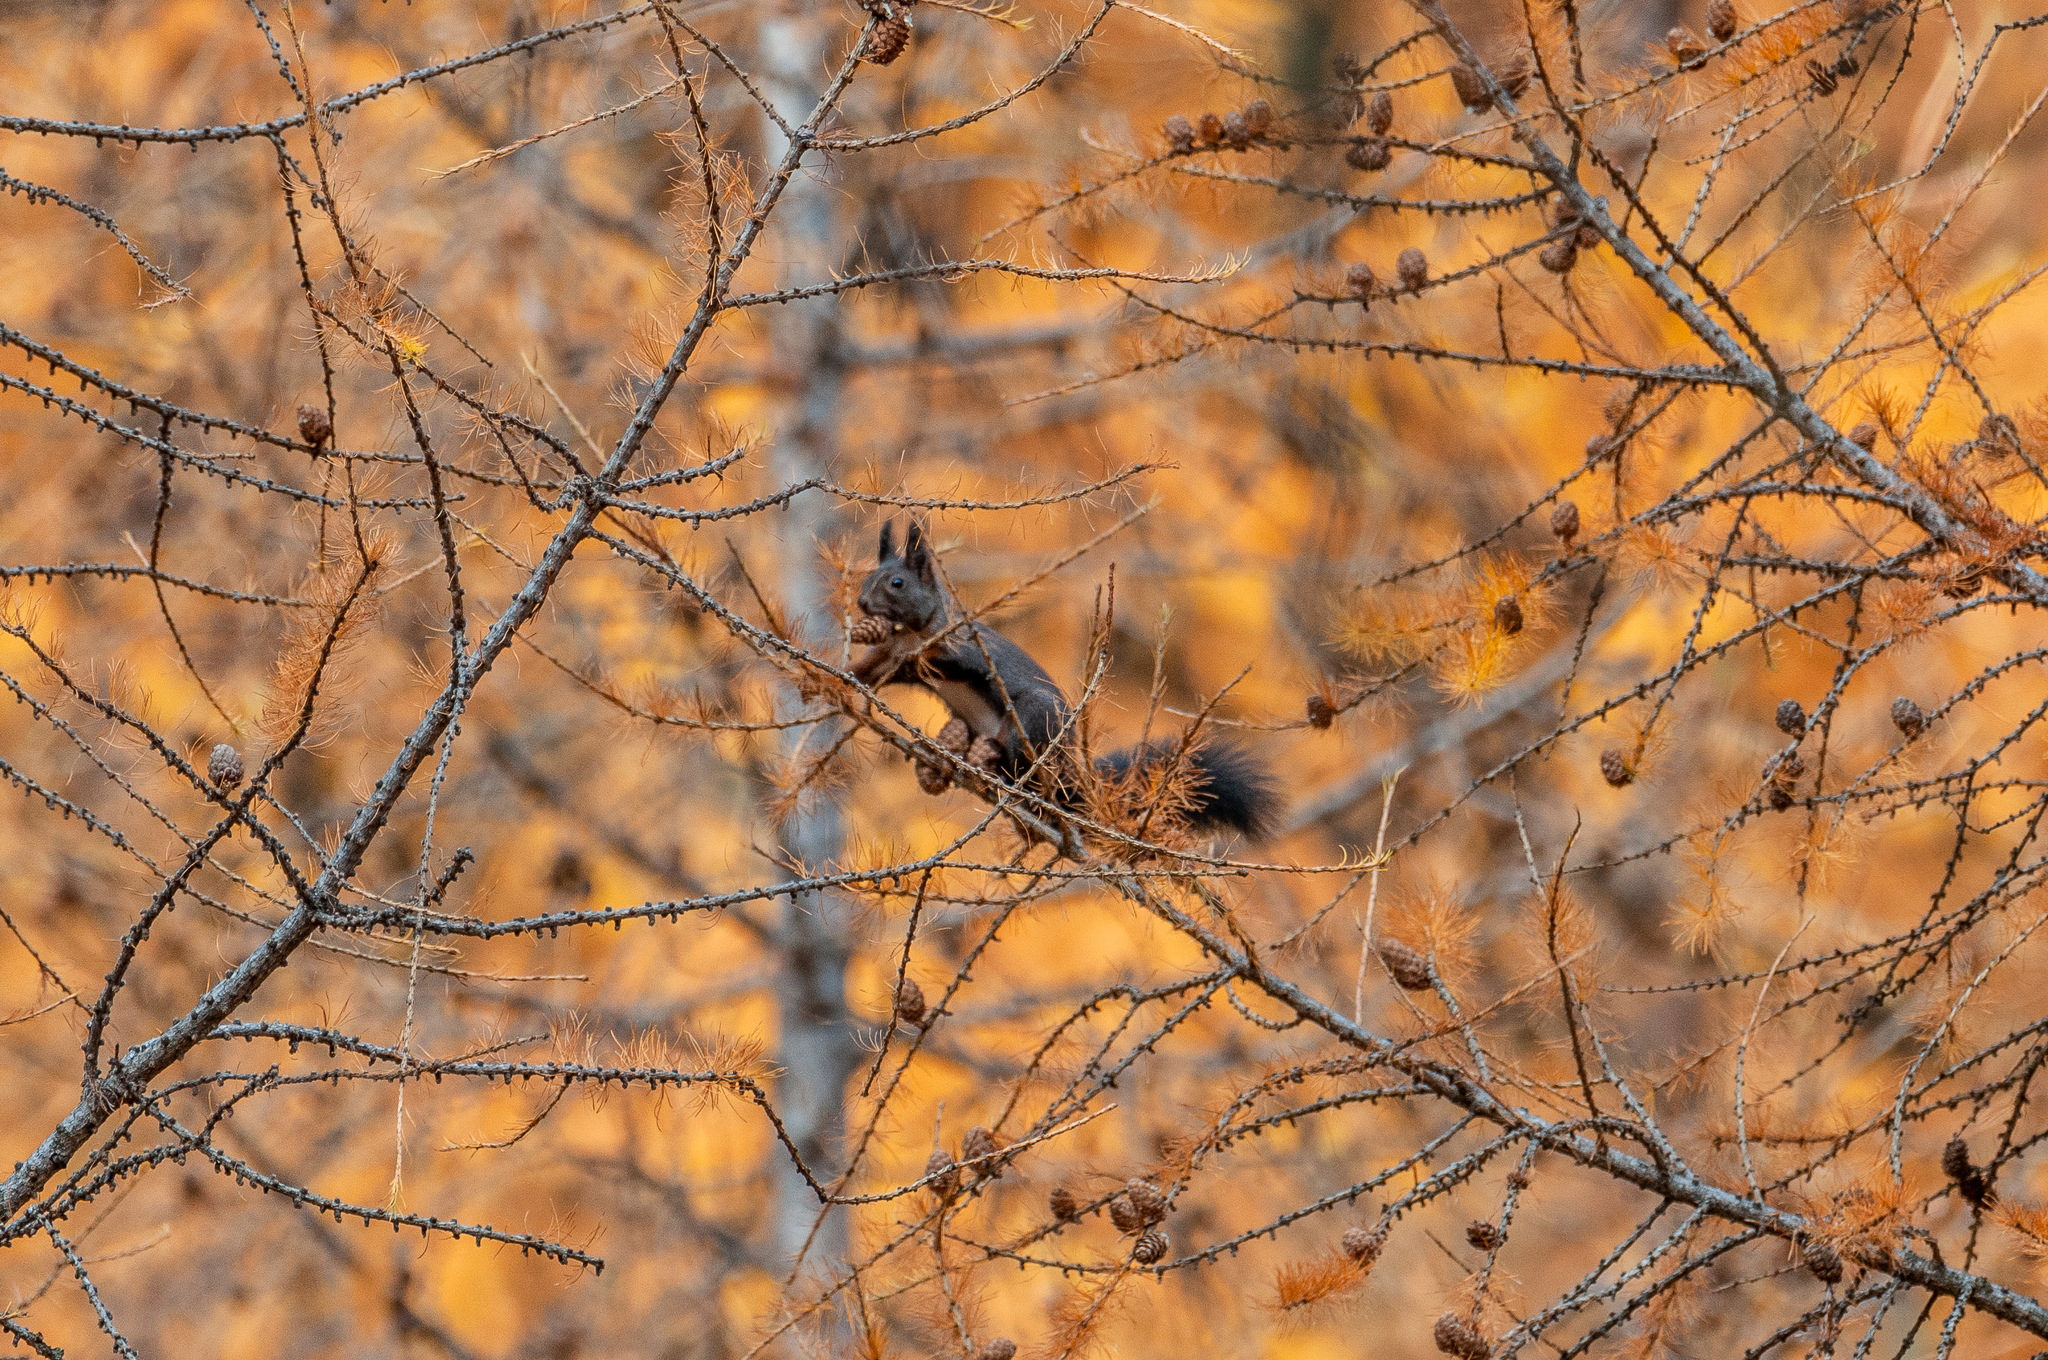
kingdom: Animalia
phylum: Chordata
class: Mammalia
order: Rodentia
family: Sciuridae
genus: Sciurus
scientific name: Sciurus vulgaris
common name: Eurasian red squirrel
